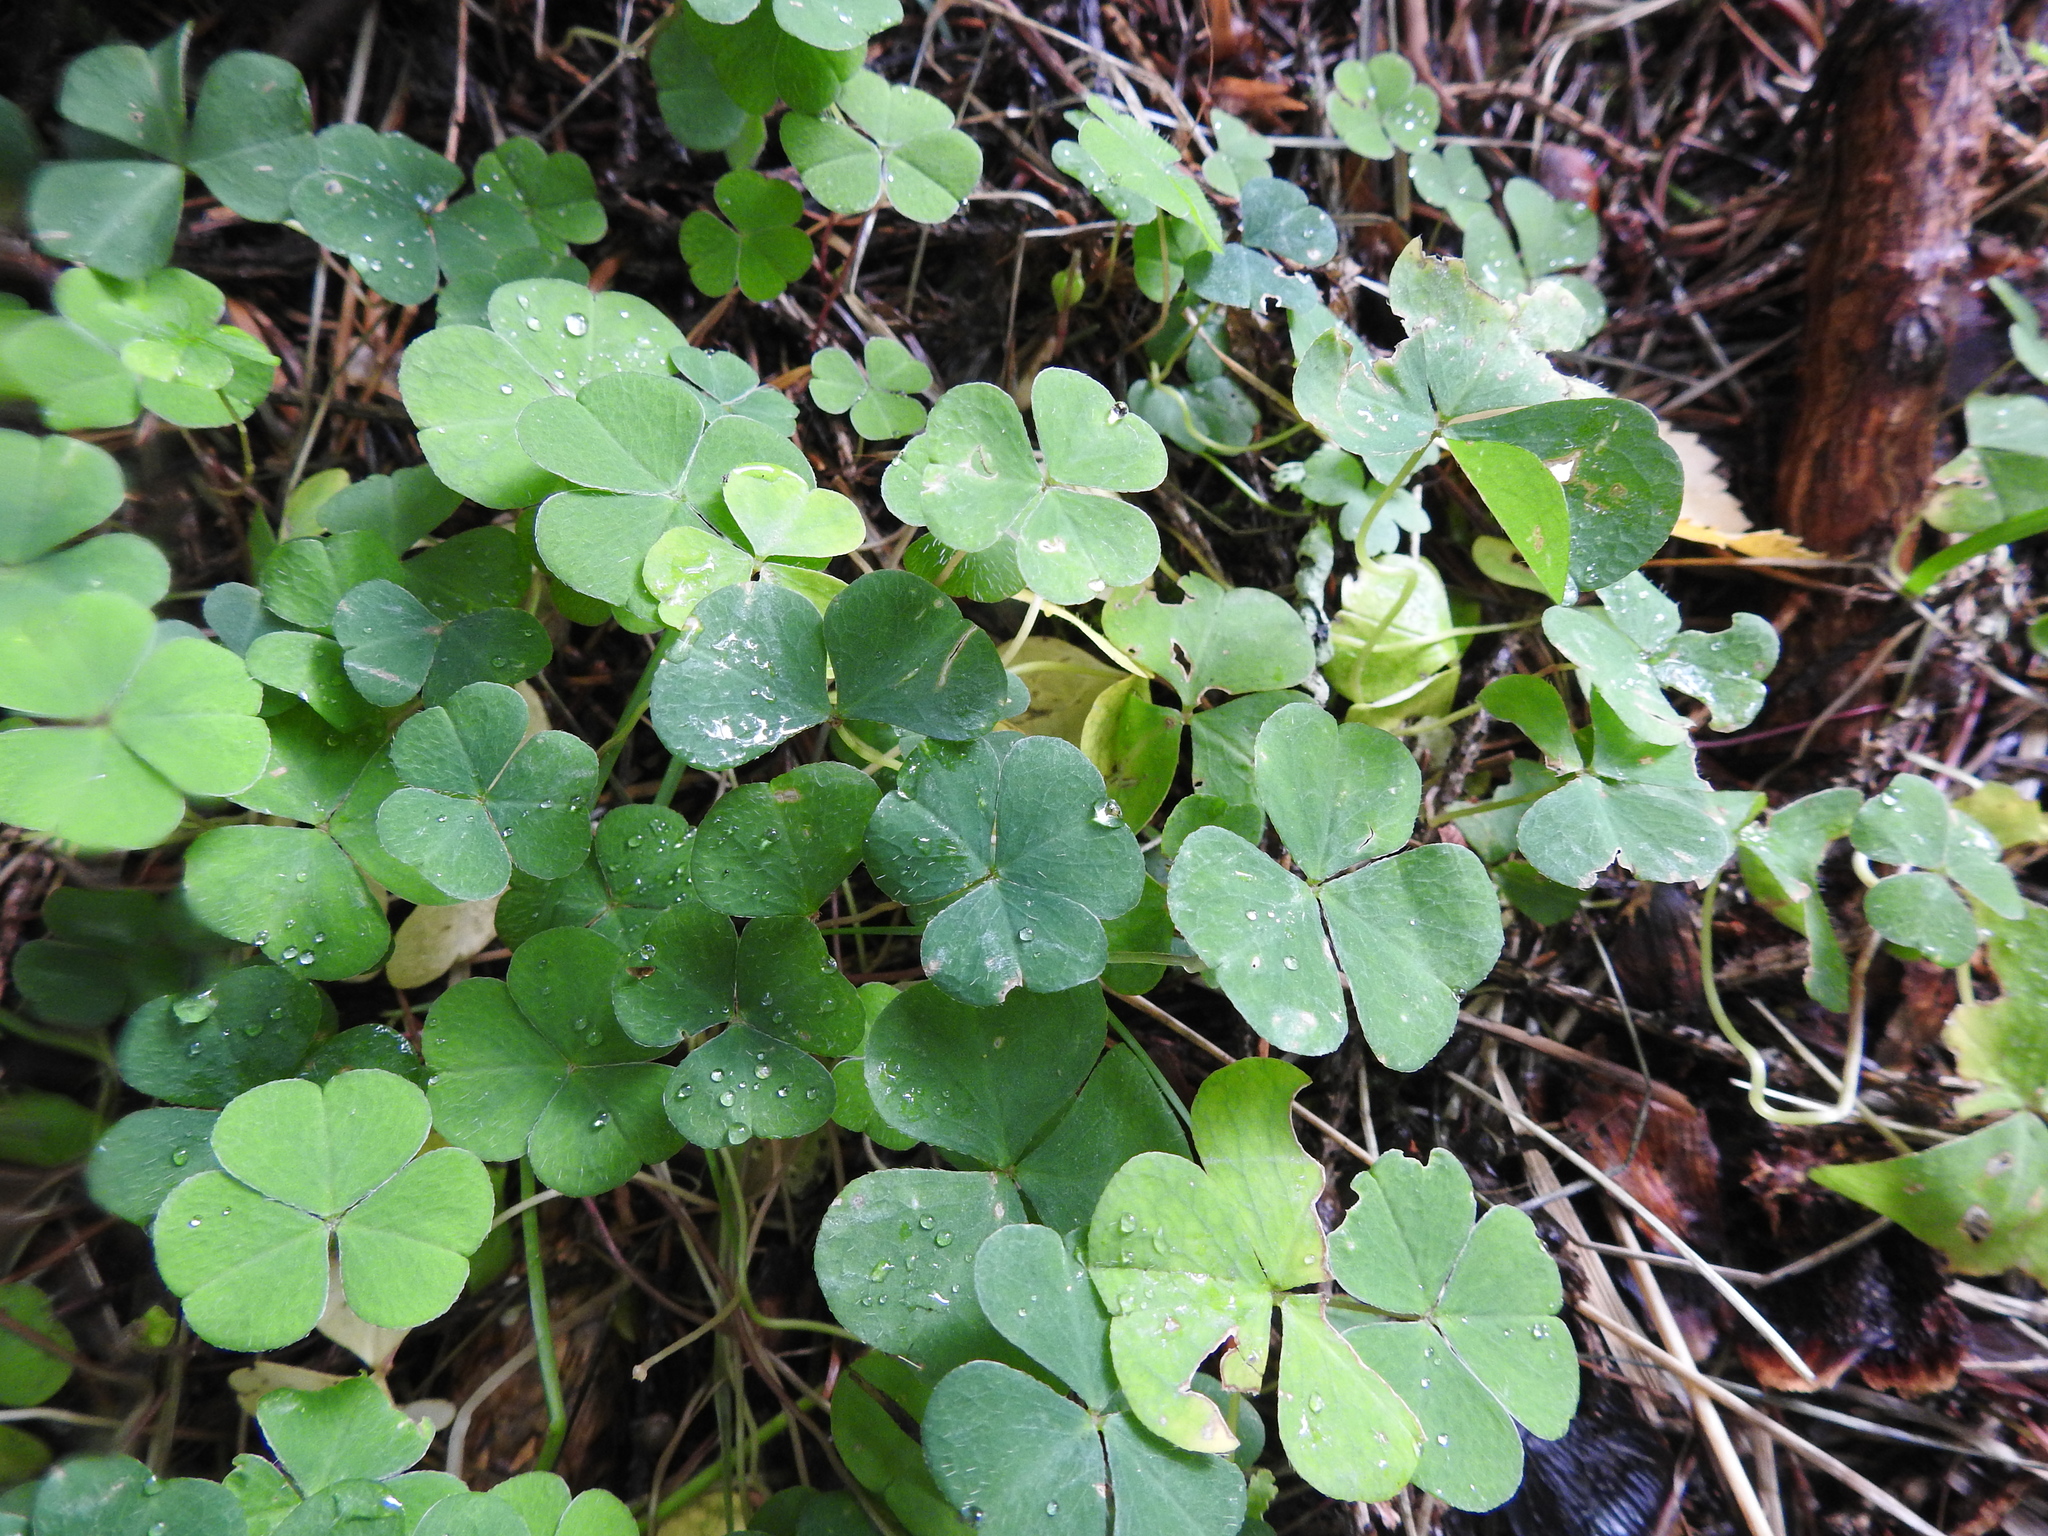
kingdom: Plantae
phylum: Tracheophyta
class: Magnoliopsida
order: Oxalidales
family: Oxalidaceae
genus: Oxalis
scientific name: Oxalis acetosella
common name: Wood-sorrel
